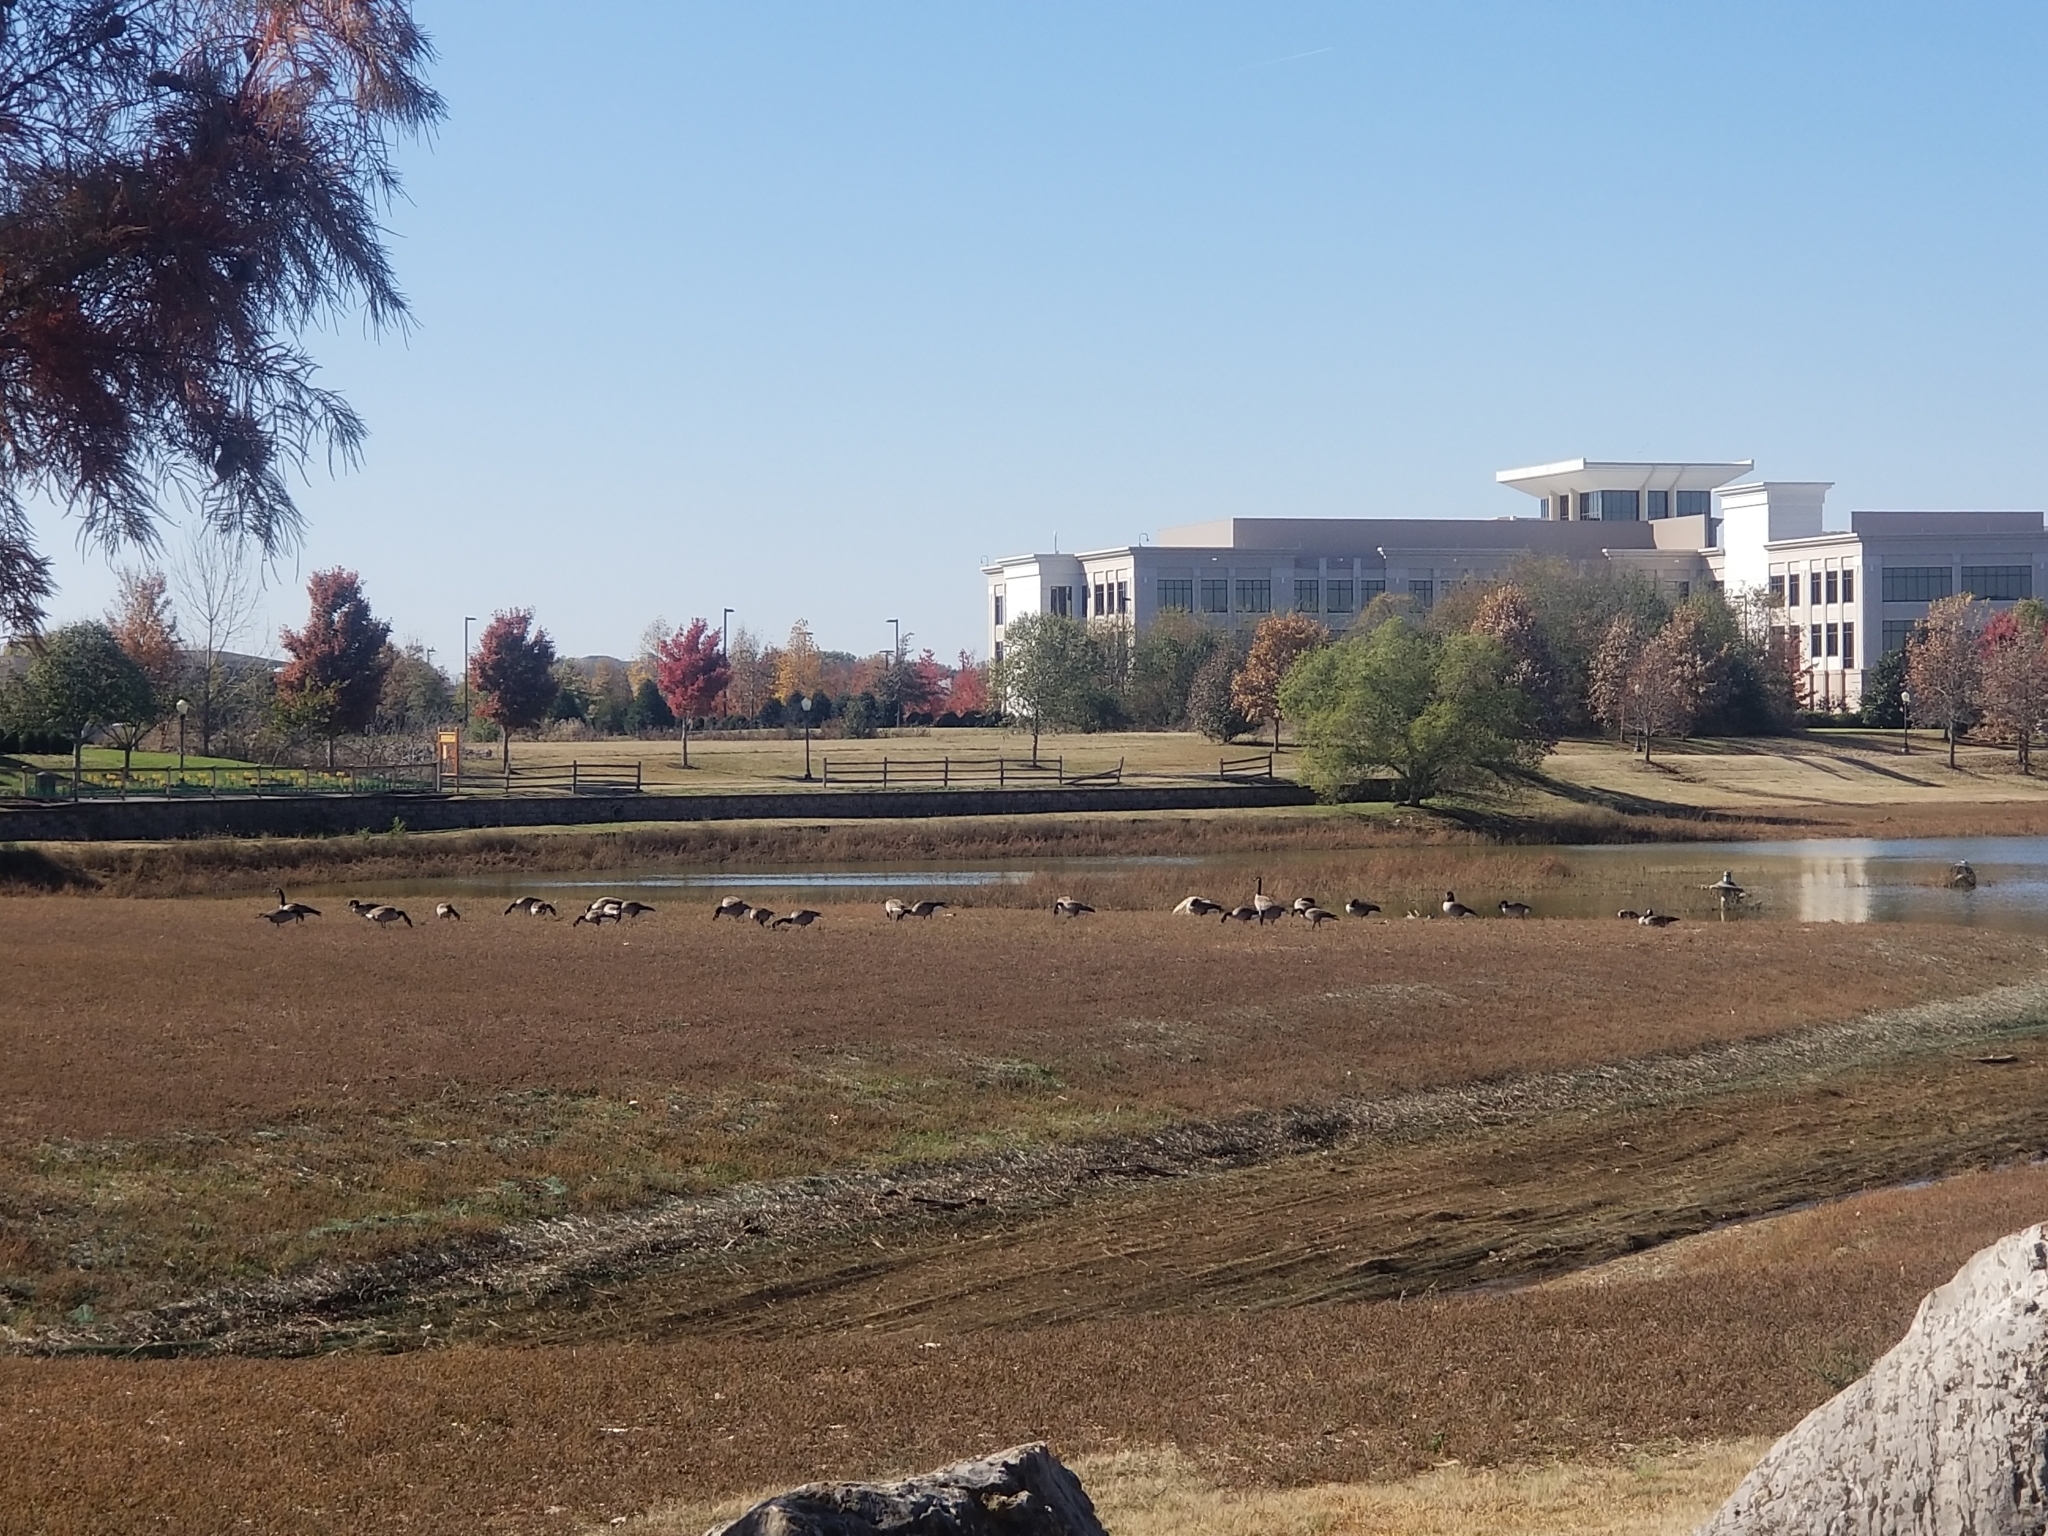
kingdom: Animalia
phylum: Chordata
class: Aves
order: Anseriformes
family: Anatidae
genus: Branta
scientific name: Branta canadensis
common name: Canada goose
